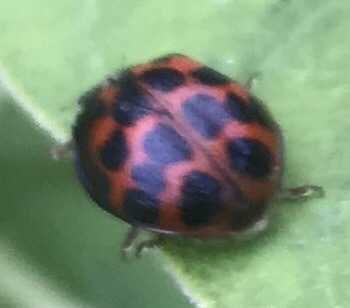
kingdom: Animalia
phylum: Arthropoda
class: Insecta
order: Coleoptera
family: Coccinellidae
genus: Harmonia
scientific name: Harmonia axyridis
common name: Harlequin ladybird
